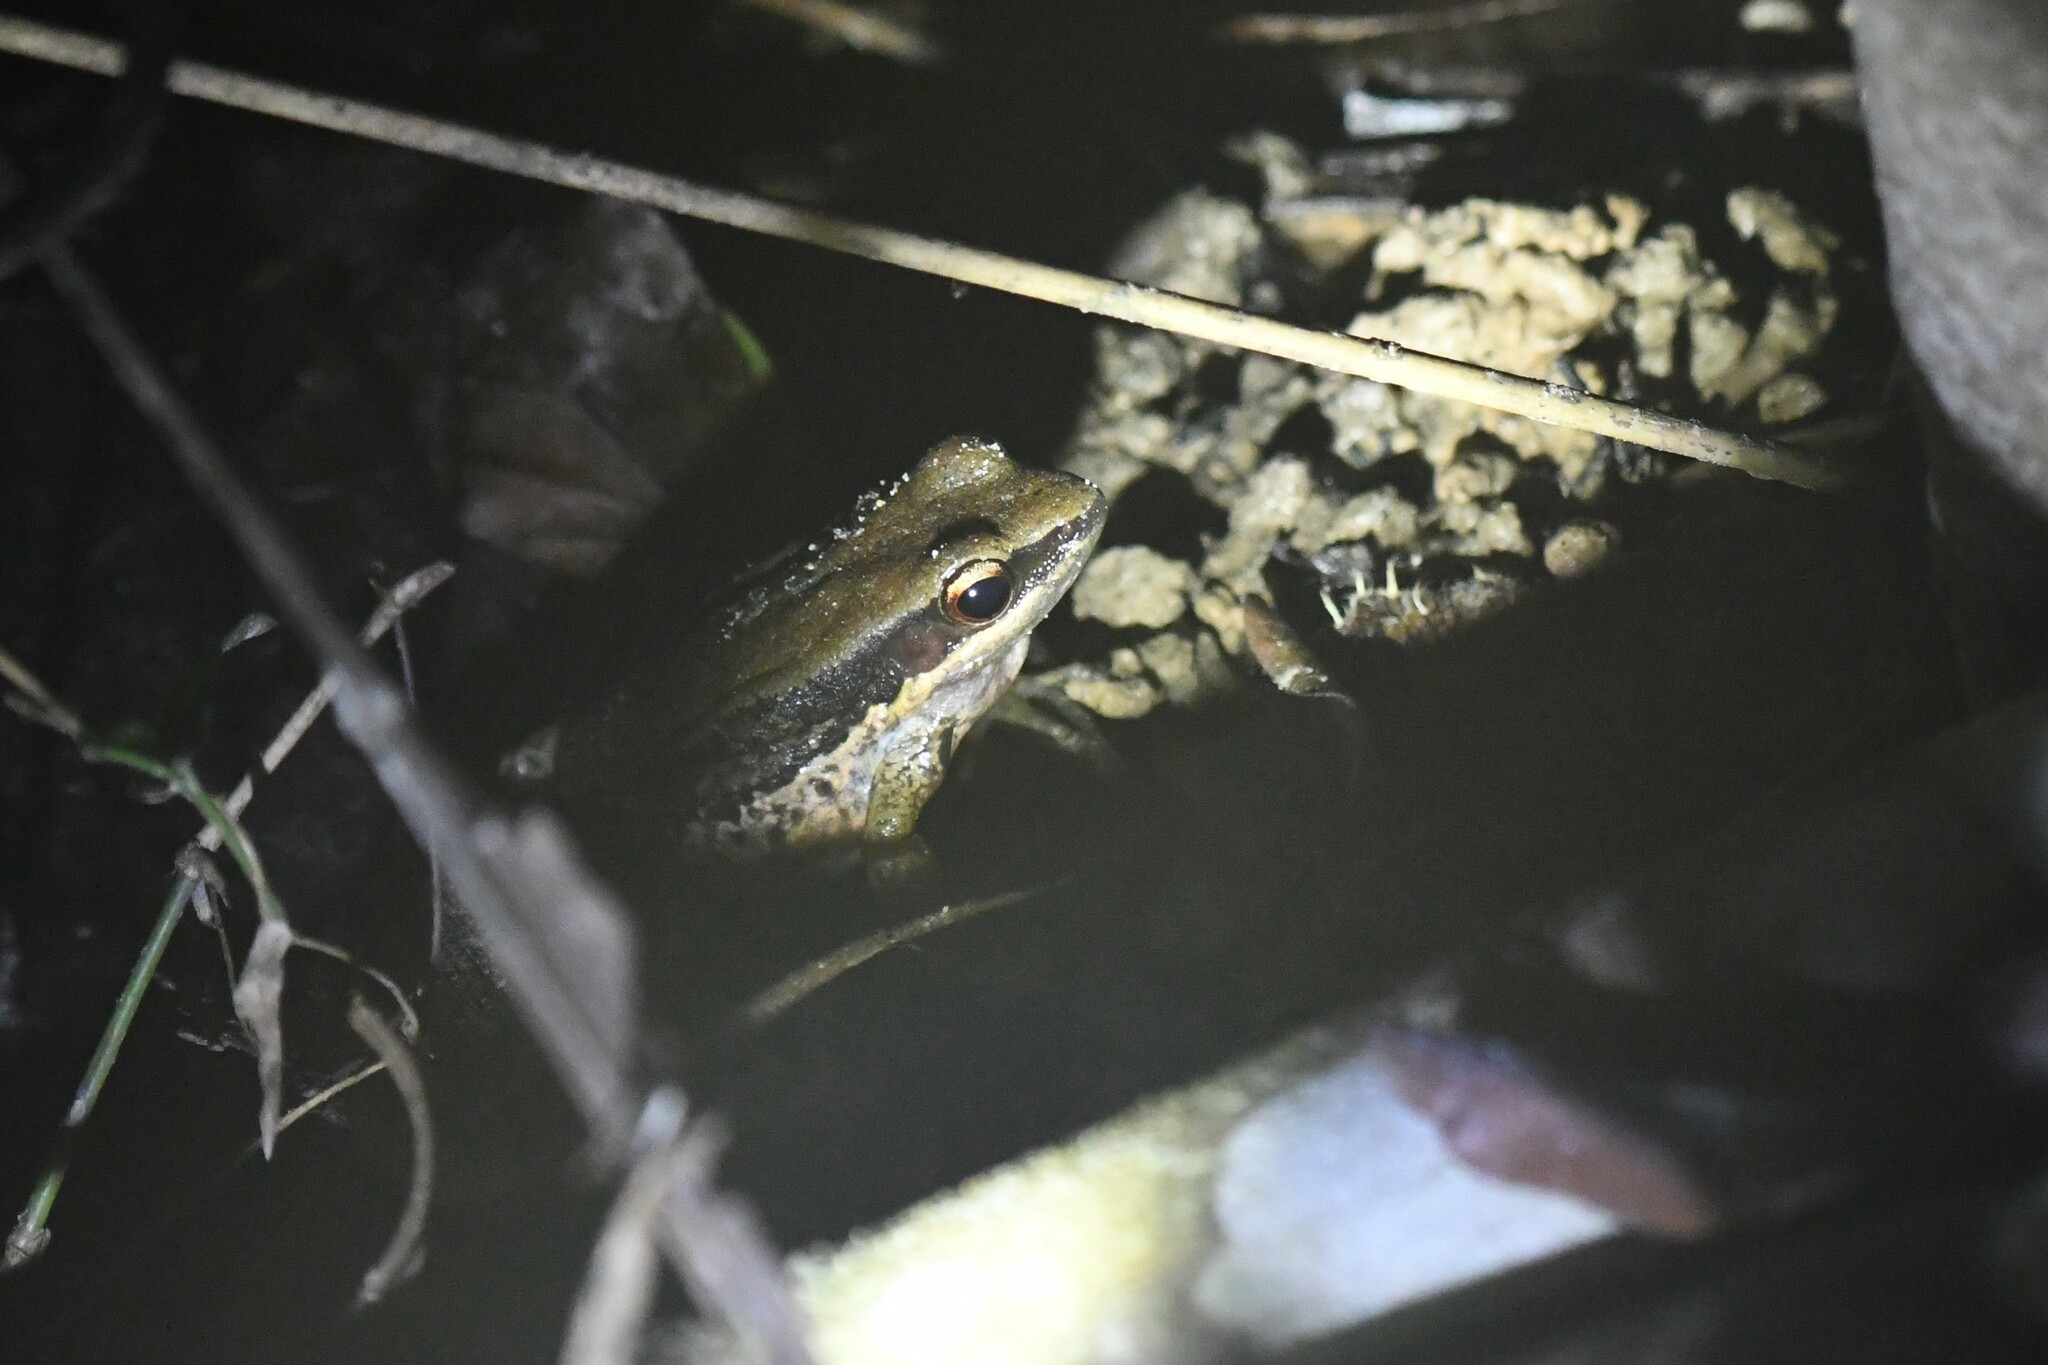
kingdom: Animalia
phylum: Chordata
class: Amphibia
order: Anura
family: Ranidae
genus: Sylvirana
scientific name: Sylvirana nigrovittata
